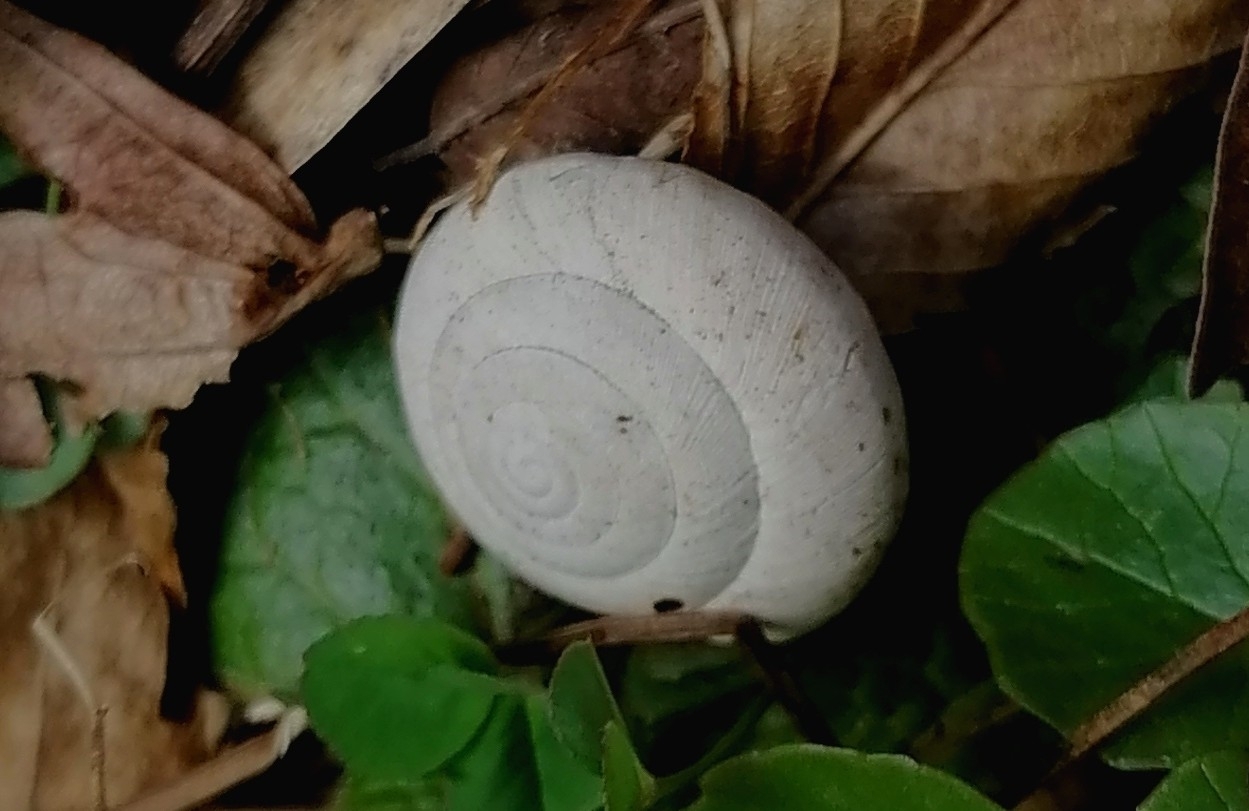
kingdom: Animalia
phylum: Mollusca
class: Gastropoda
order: Stylommatophora
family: Zonitidae
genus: Aegopis
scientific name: Aegopis verticillus
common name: Giant glass snail
